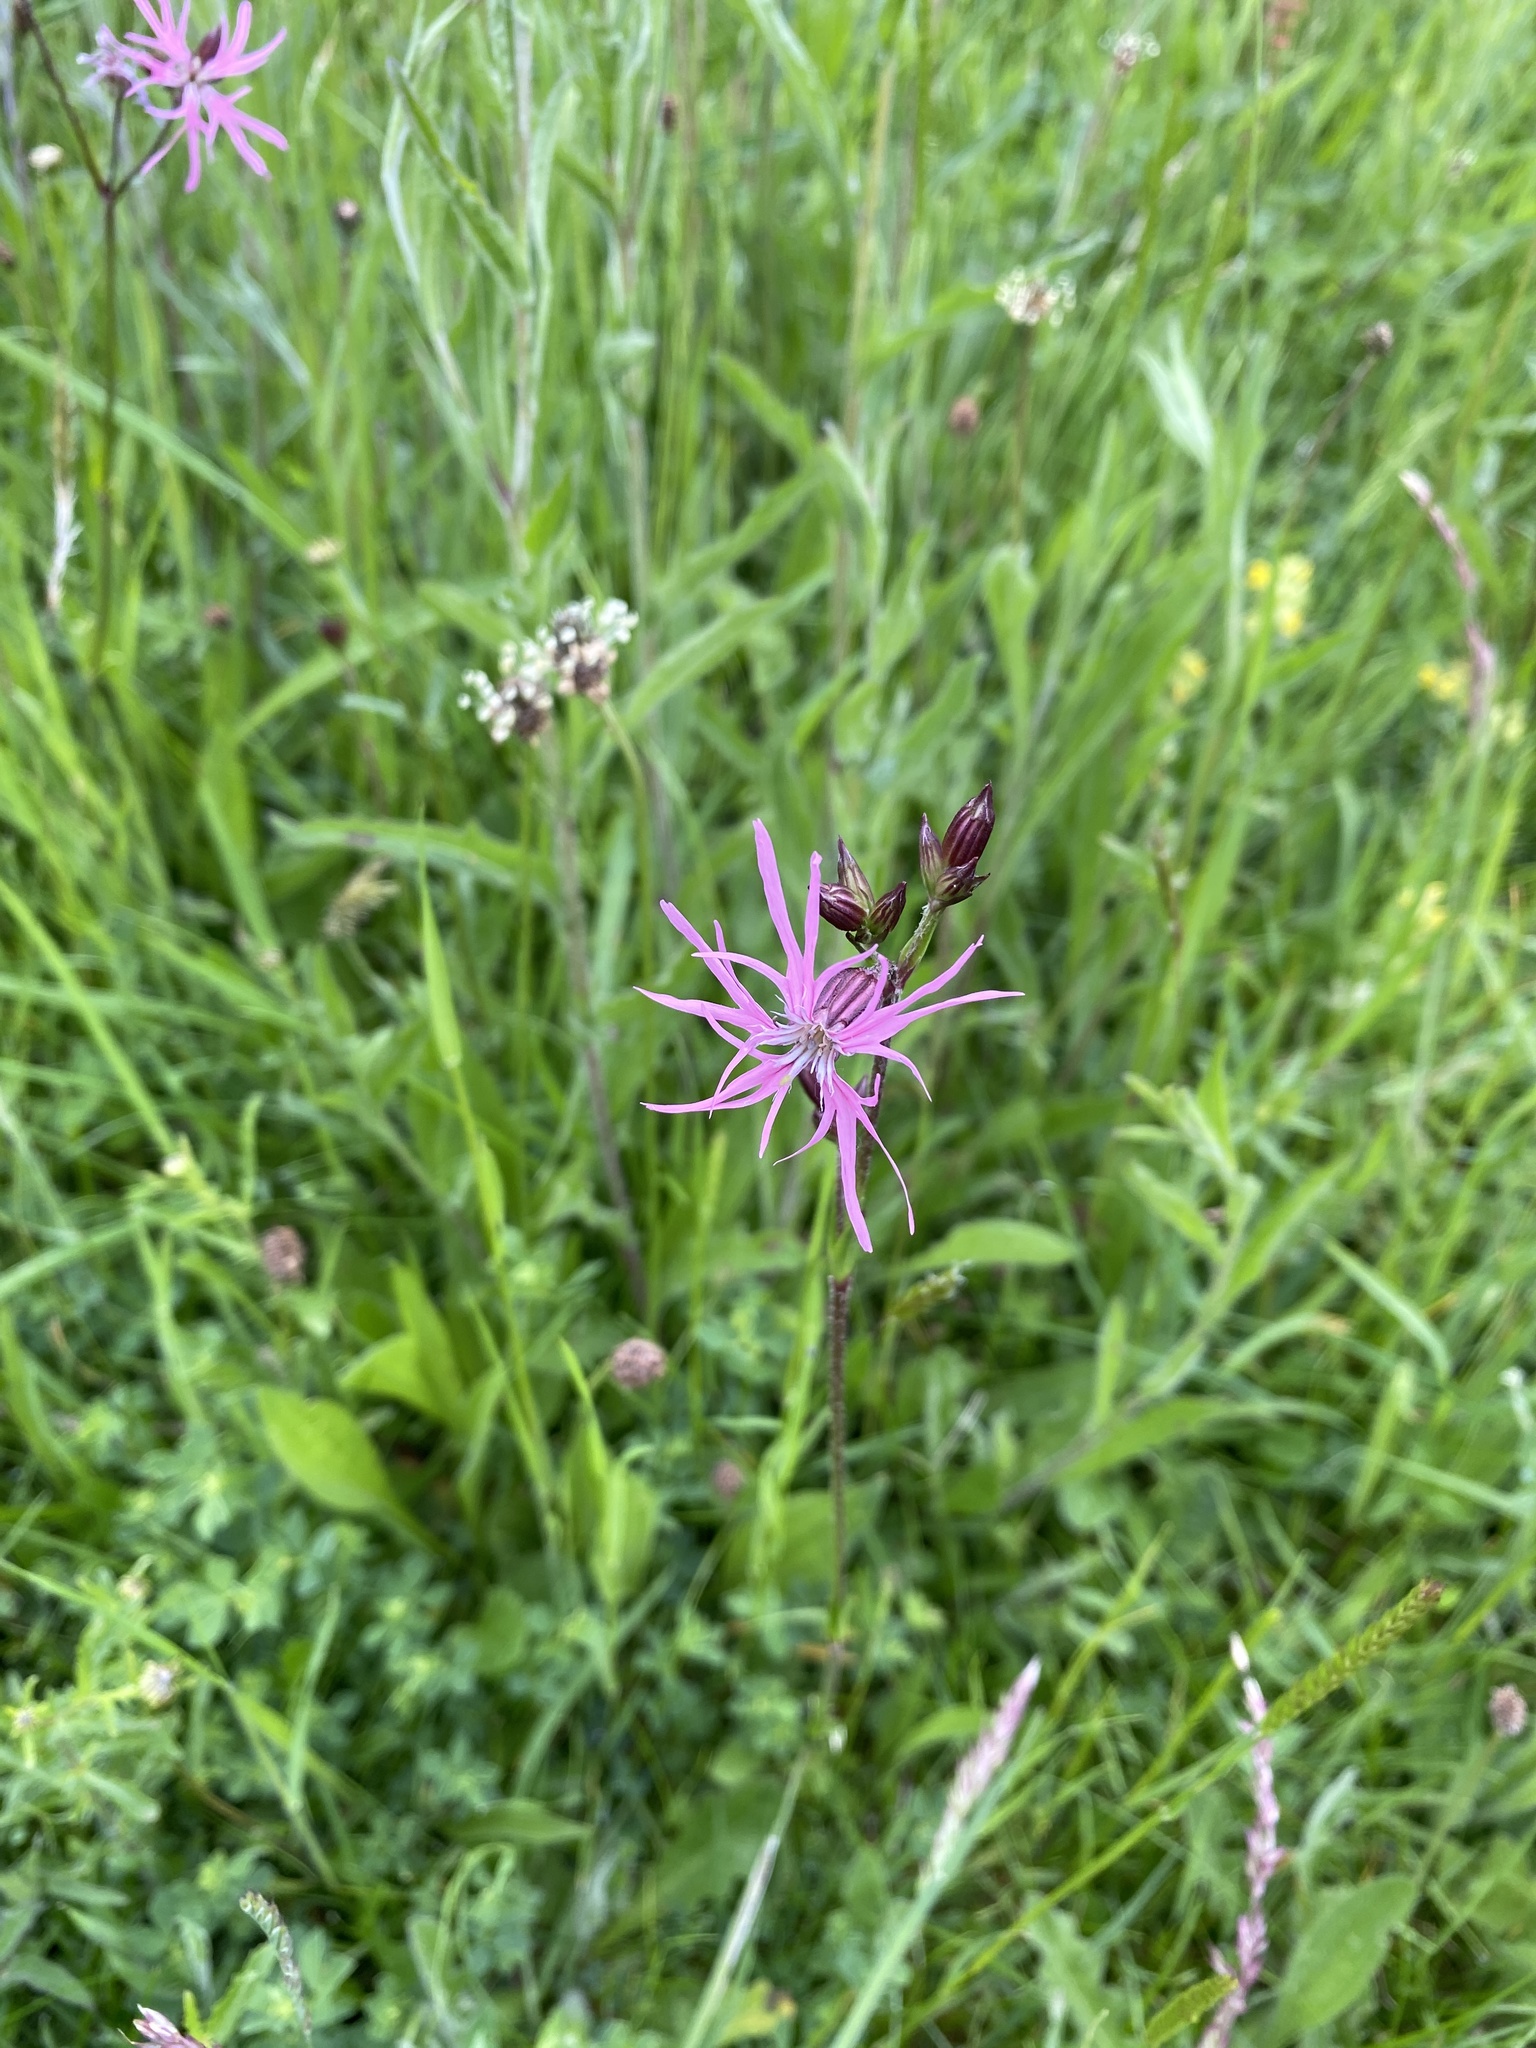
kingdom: Plantae
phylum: Tracheophyta
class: Magnoliopsida
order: Caryophyllales
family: Caryophyllaceae
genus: Silene
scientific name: Silene flos-cuculi
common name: Ragged-robin
